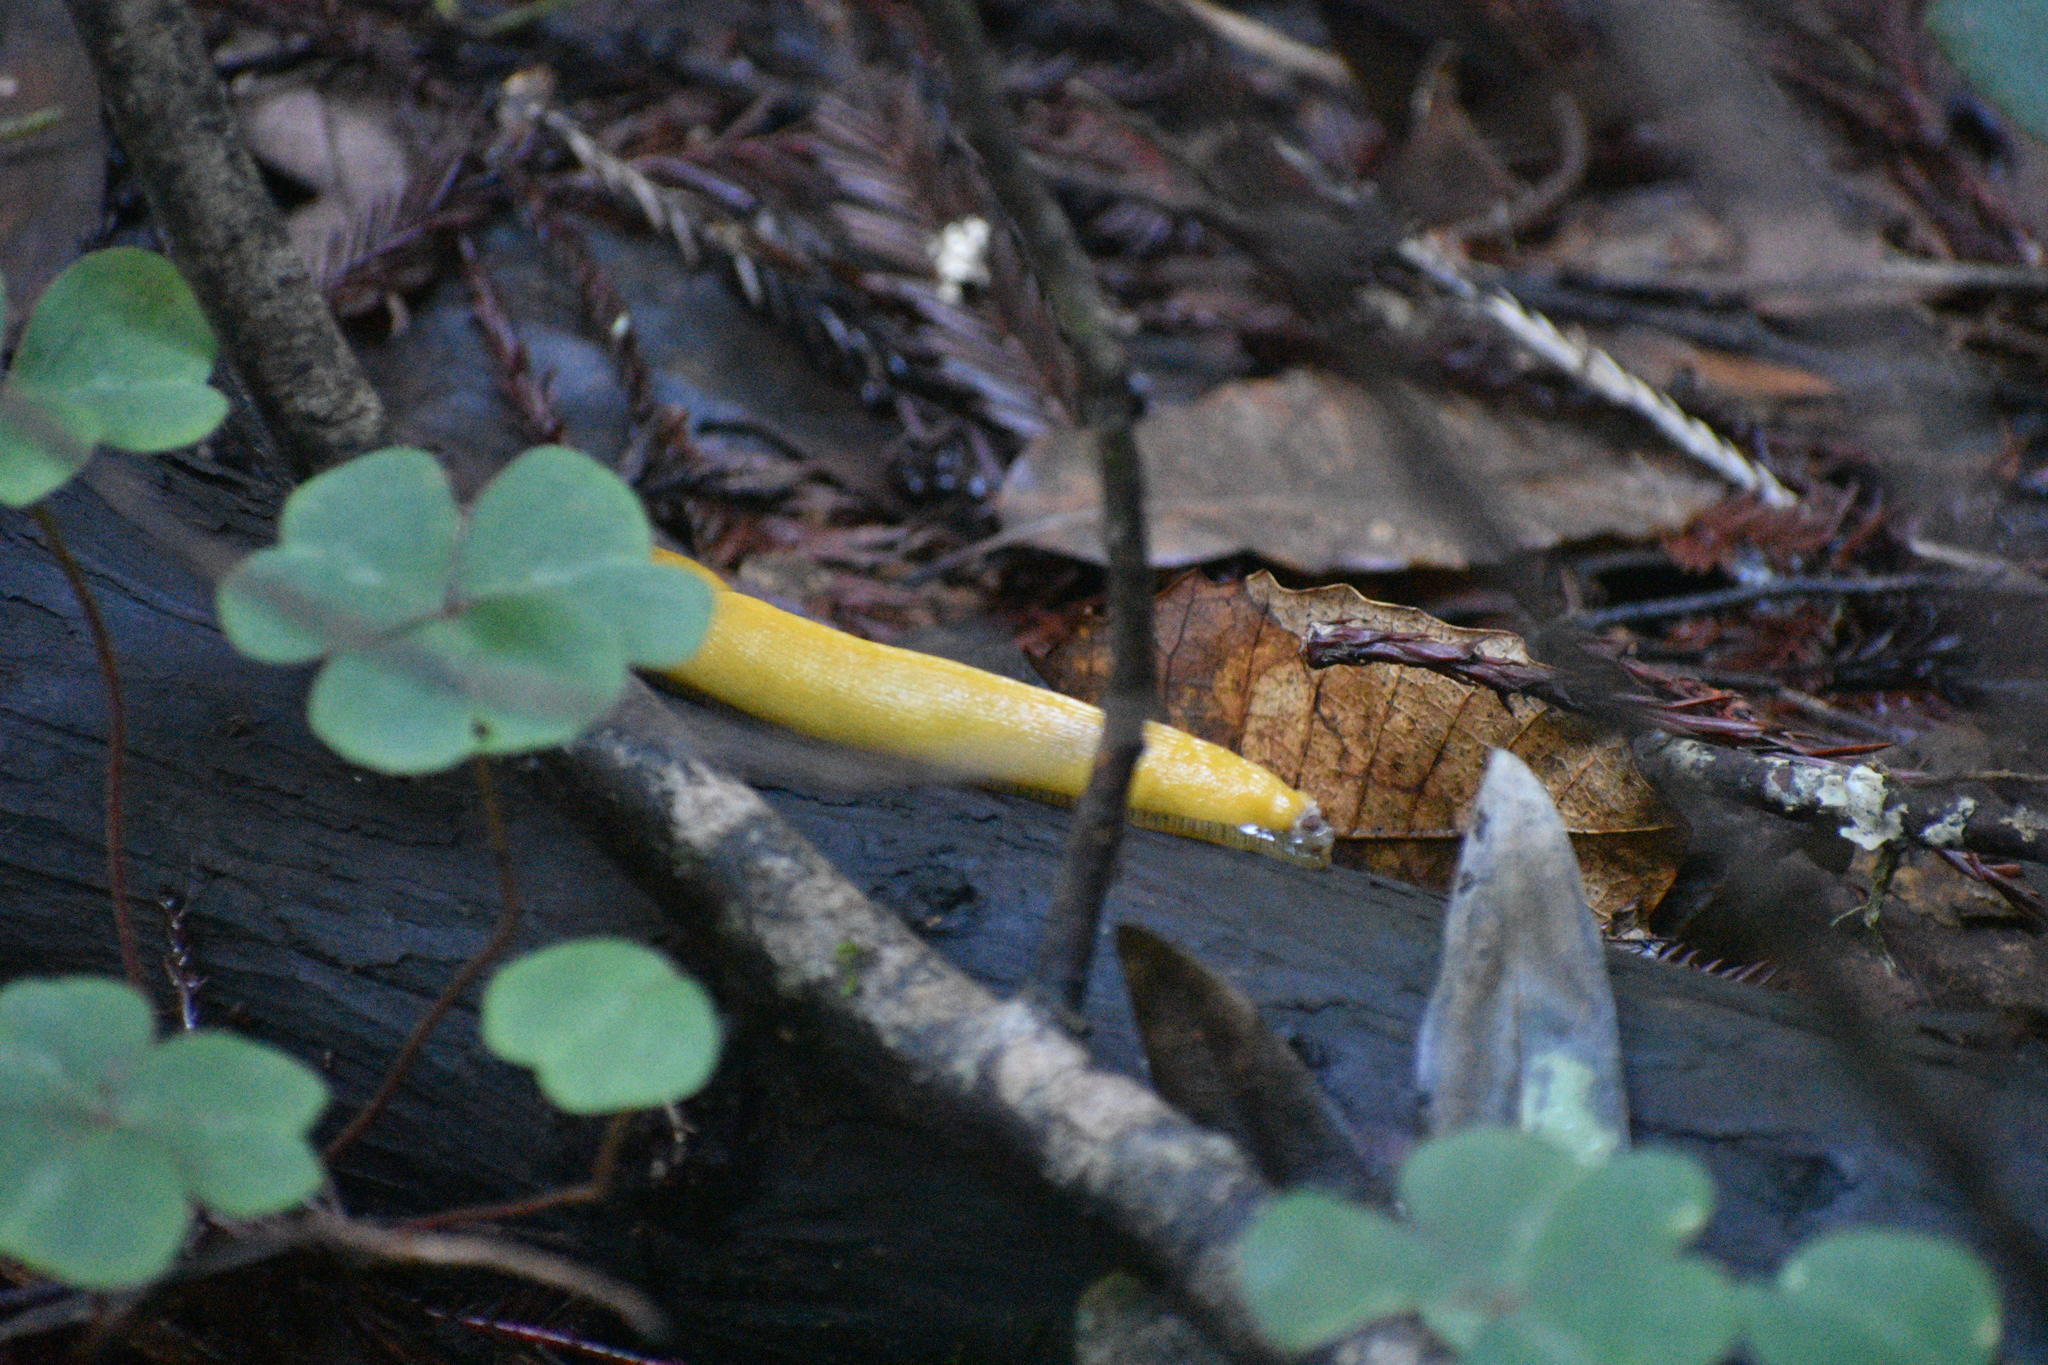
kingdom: Animalia
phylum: Mollusca
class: Gastropoda
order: Stylommatophora
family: Ariolimacidae
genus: Ariolimax
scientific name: Ariolimax dolichophallus
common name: Slender banana slug
